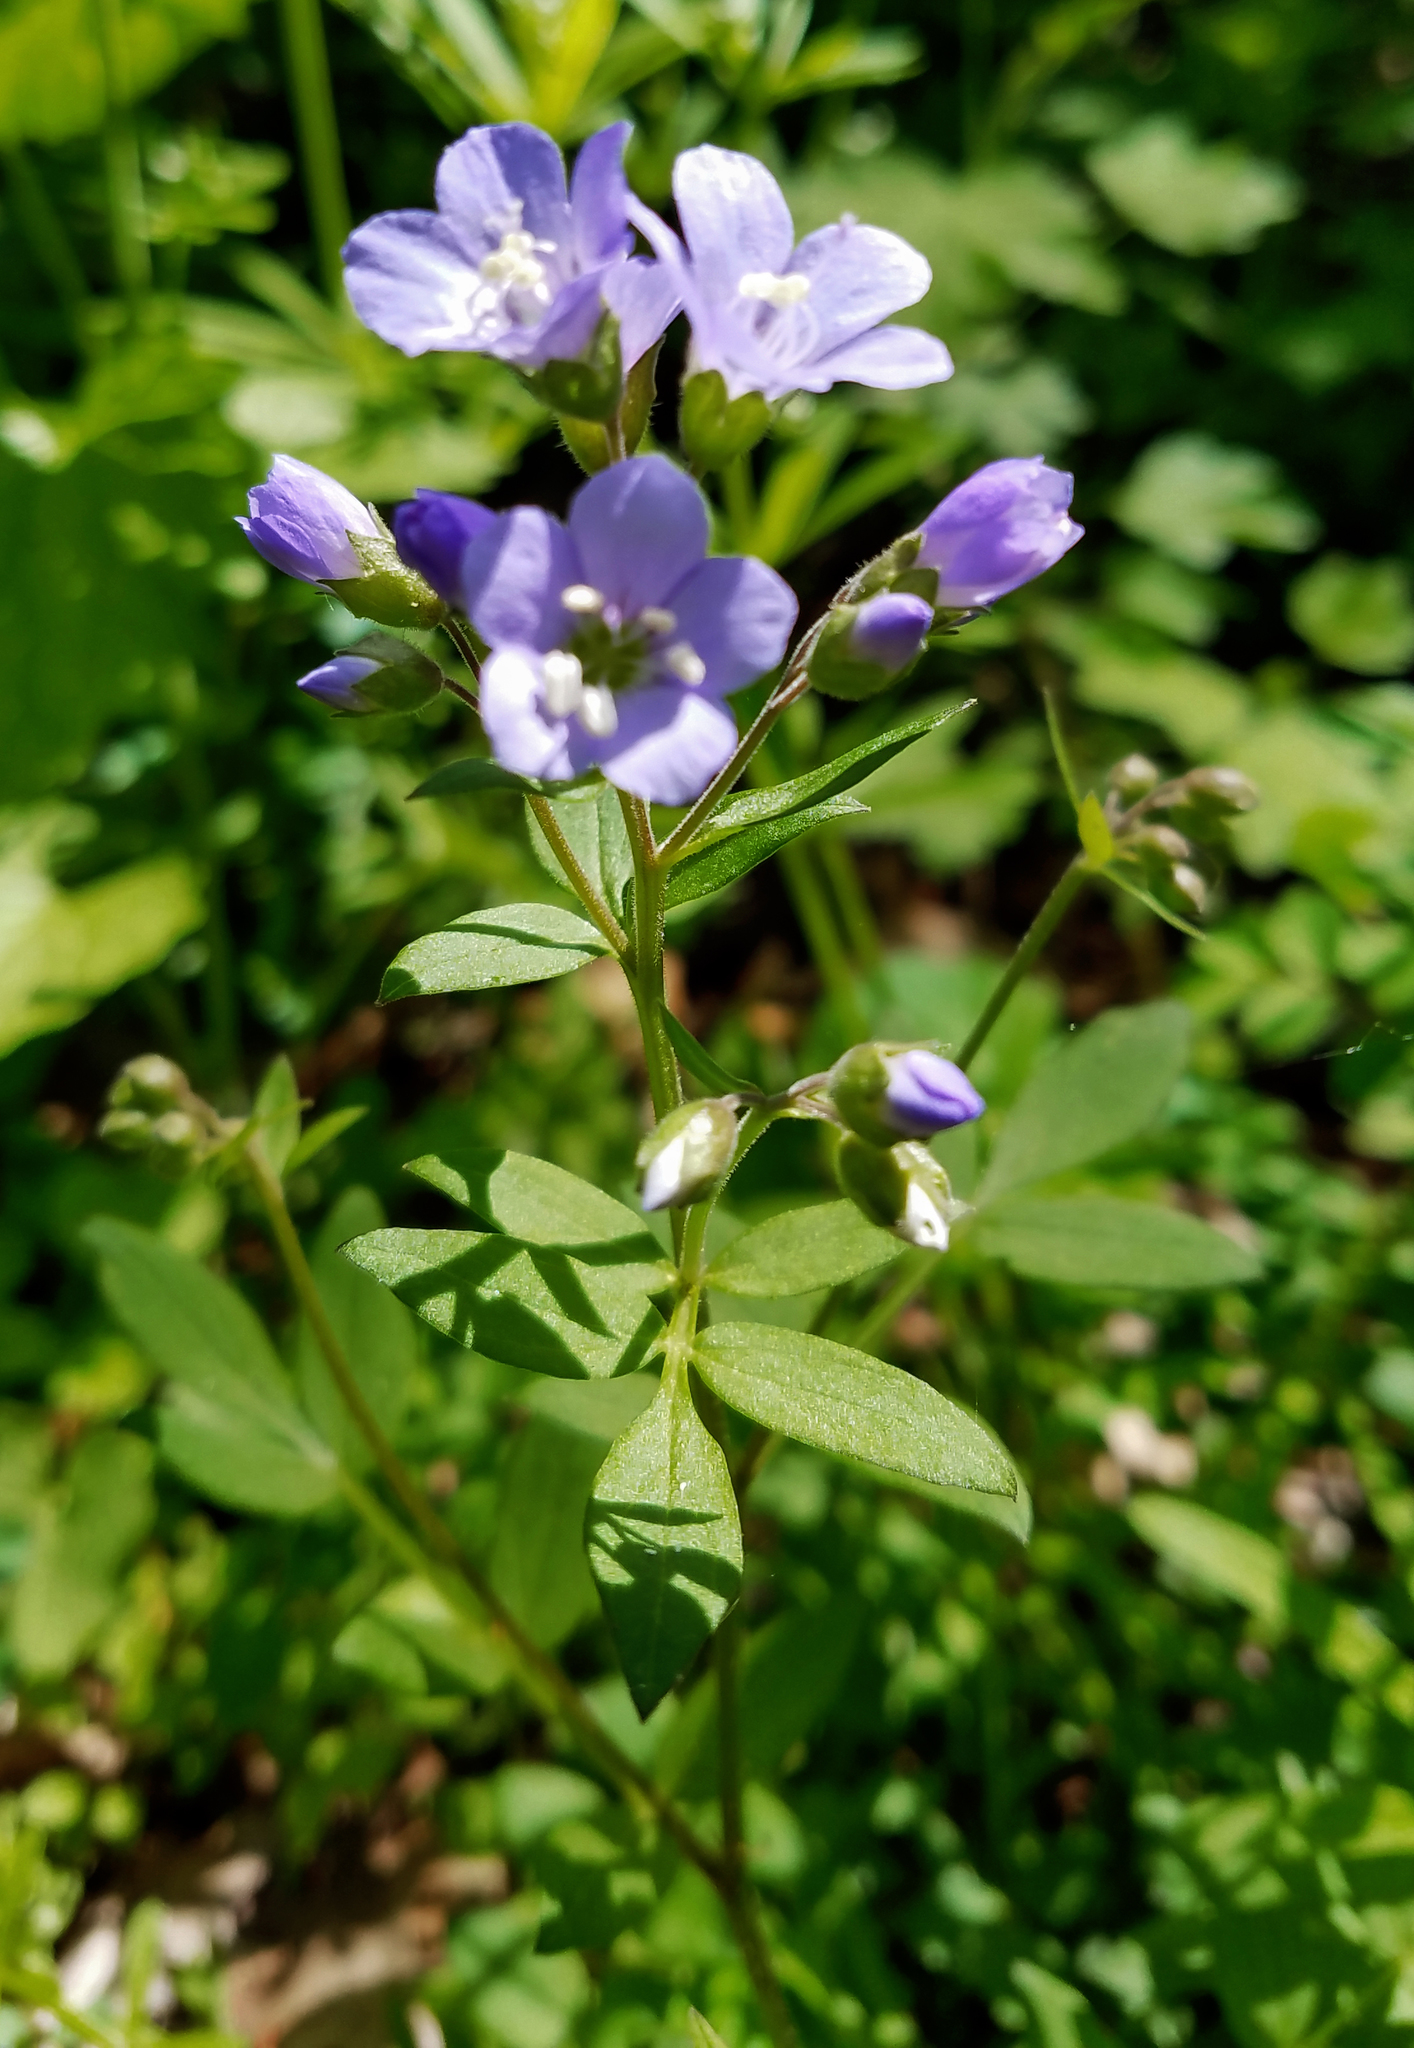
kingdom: Plantae
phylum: Tracheophyta
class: Magnoliopsida
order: Ericales
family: Polemoniaceae
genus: Polemonium
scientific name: Polemonium reptans
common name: Creeping jacob's-ladder
